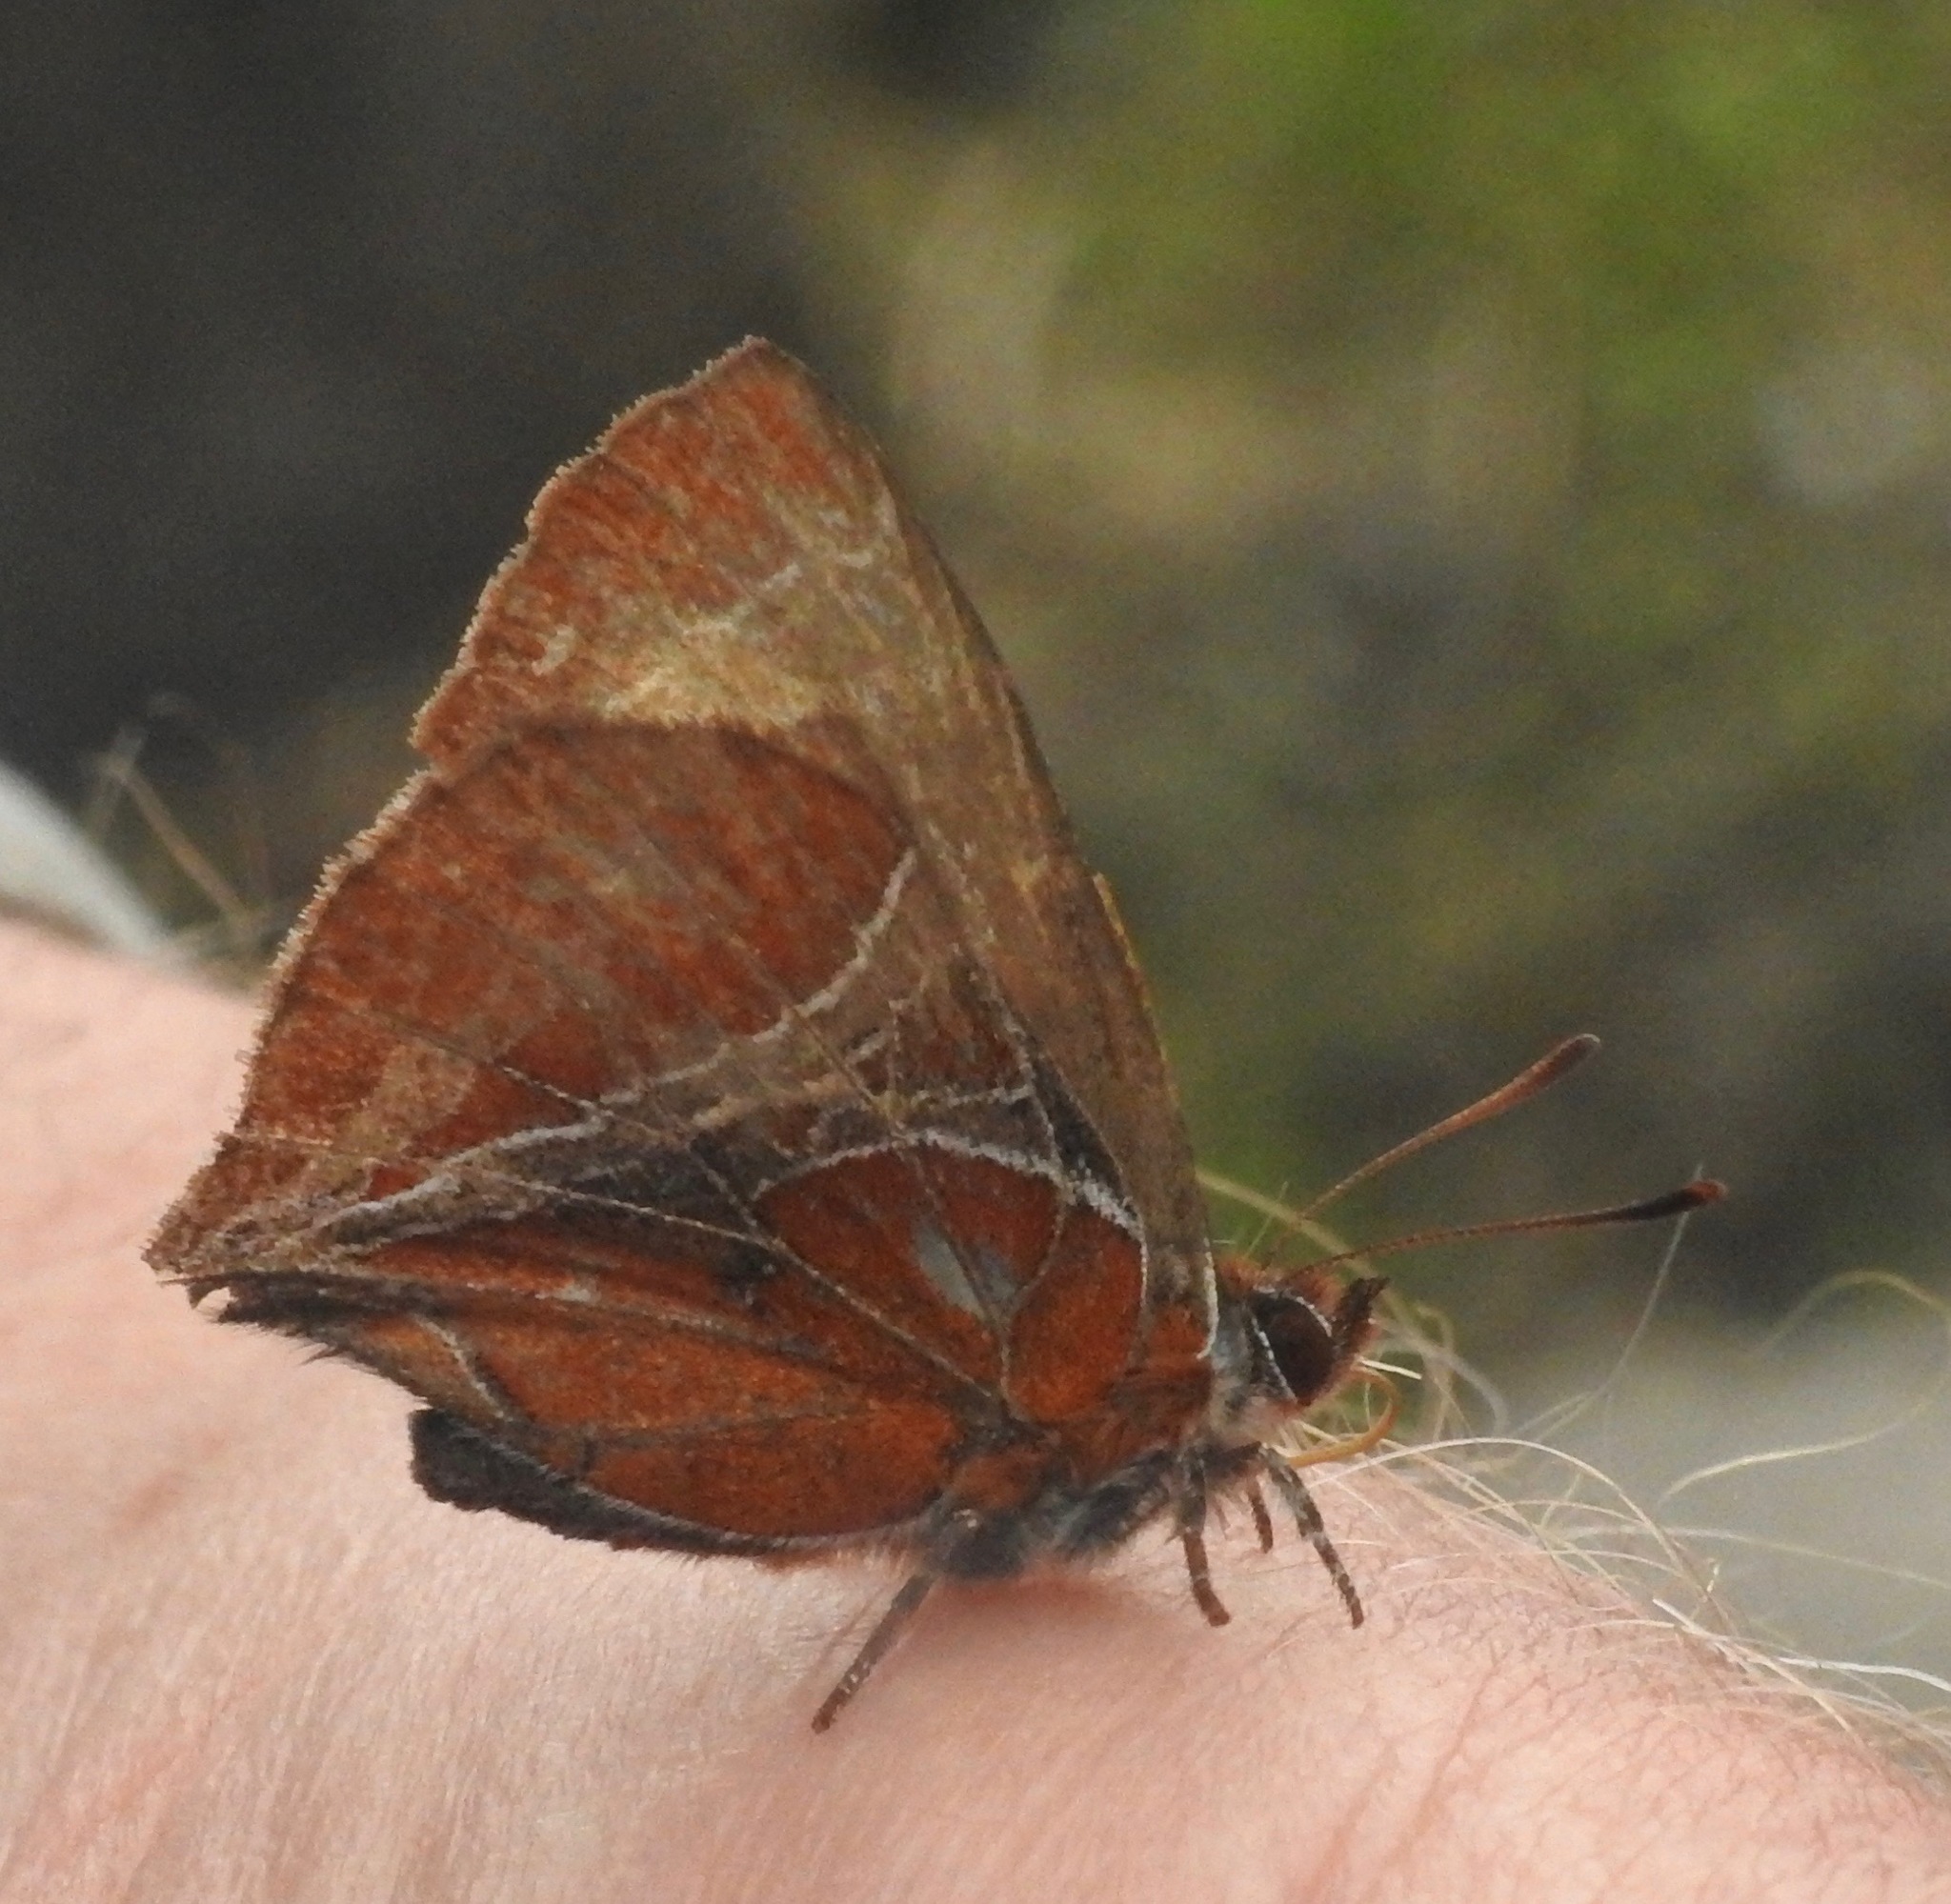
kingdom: Animalia
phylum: Arthropoda
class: Insecta
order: Lepidoptera
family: Lycaenidae
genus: Amblopala
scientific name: Amblopala avidiena
